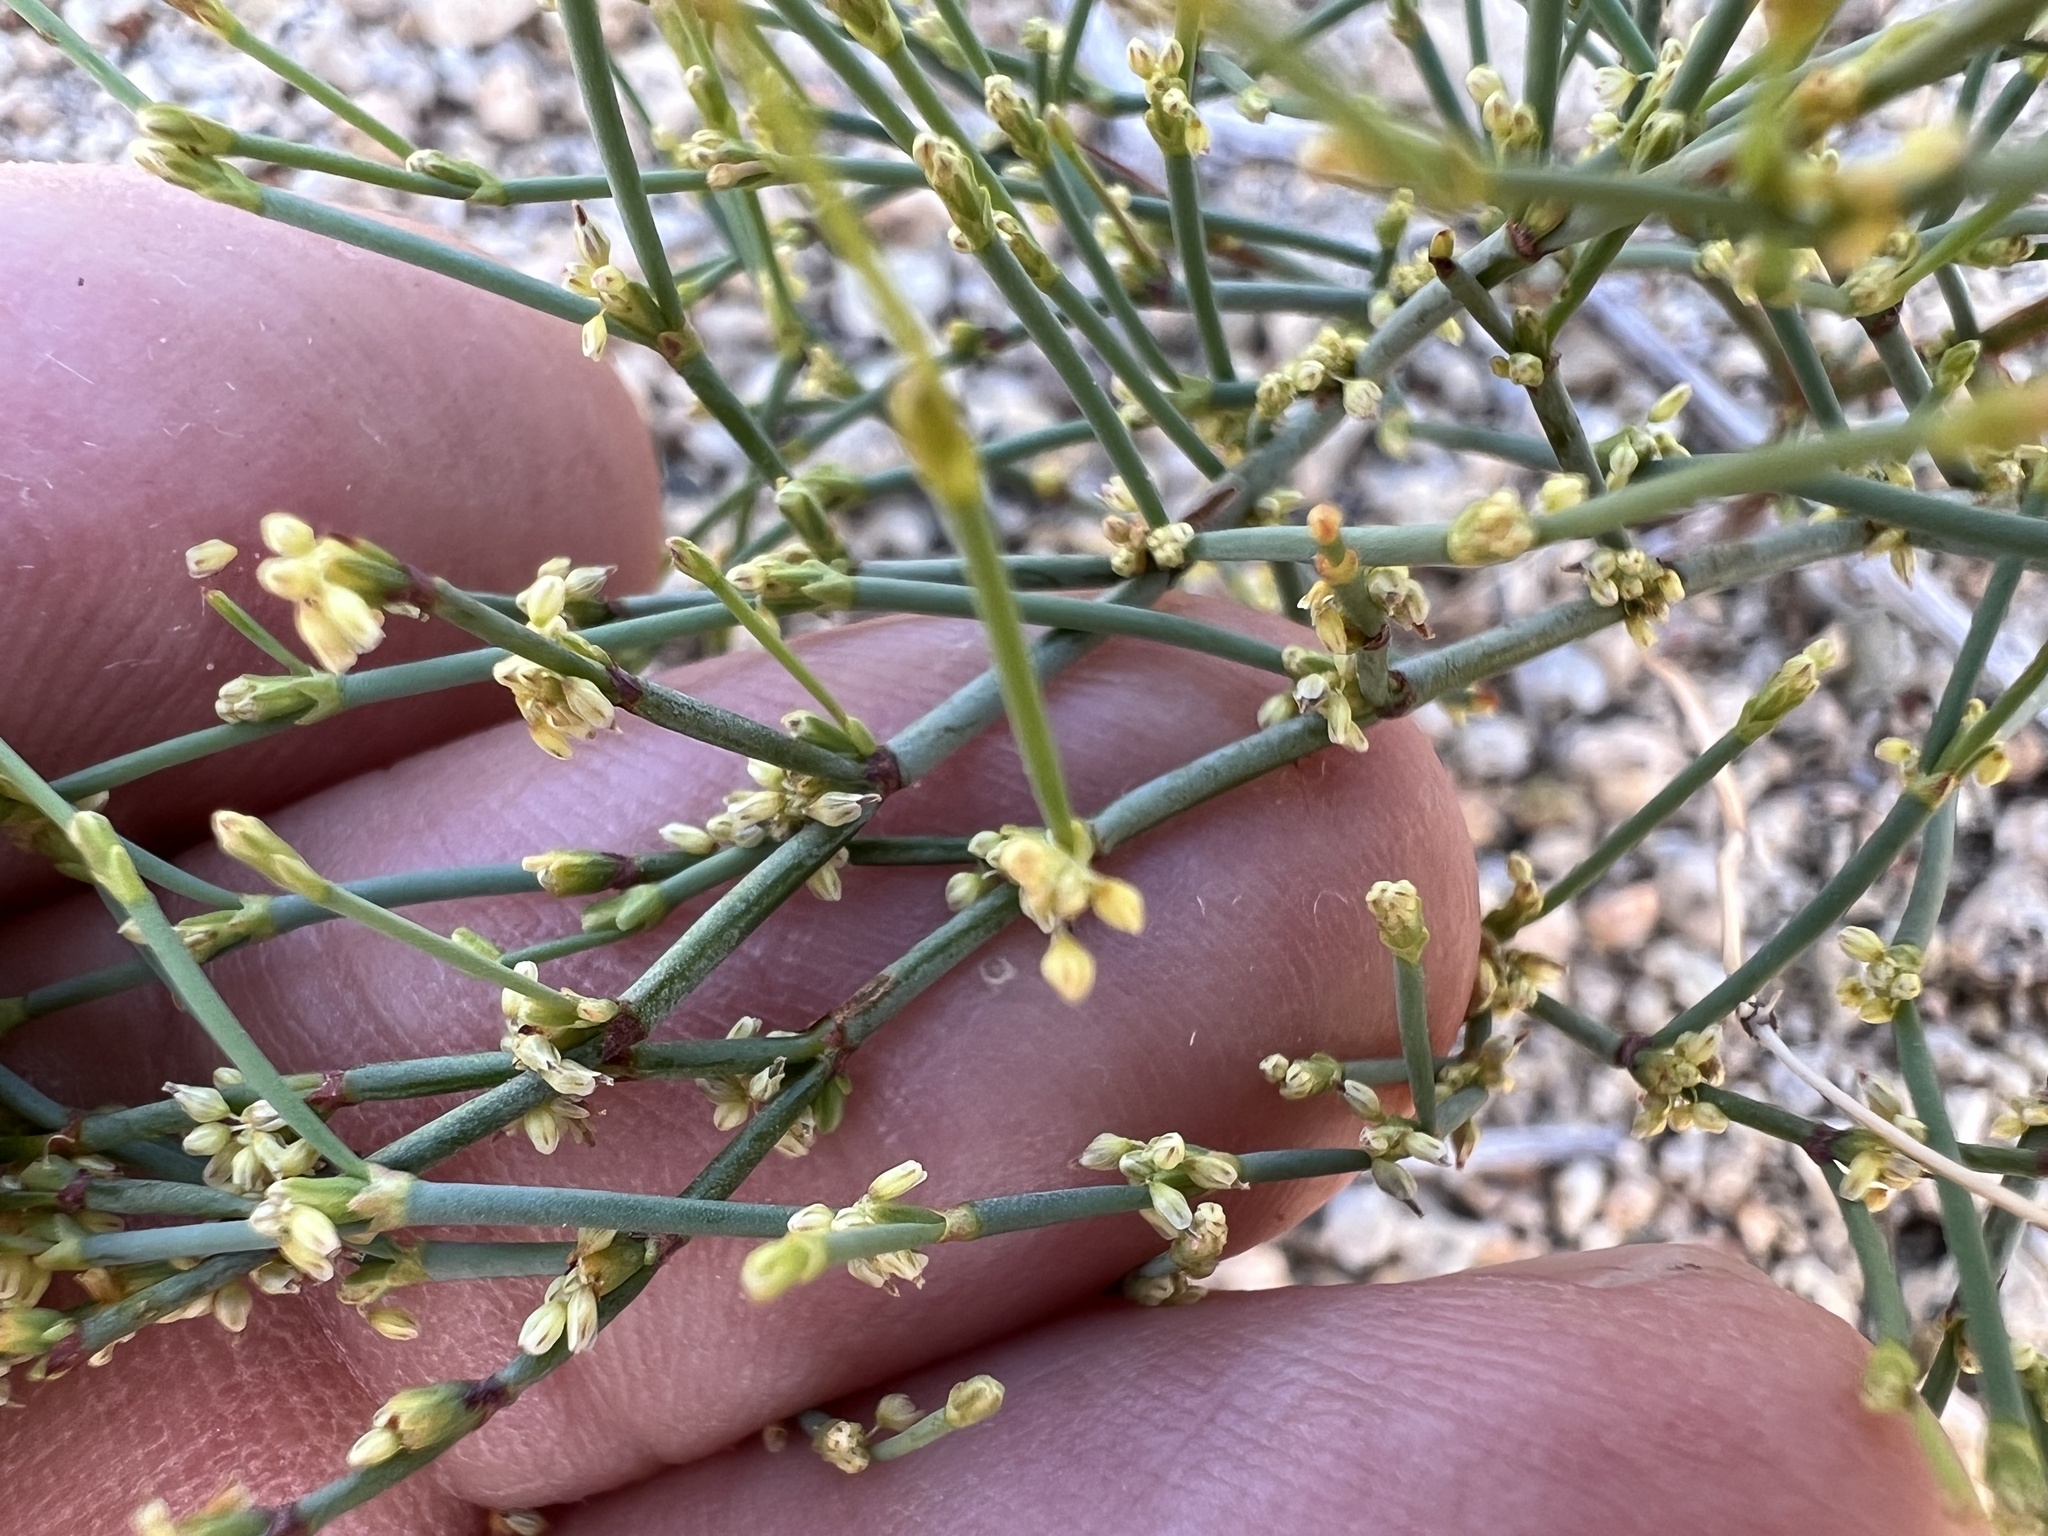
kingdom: Plantae
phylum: Tracheophyta
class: Magnoliopsida
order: Caryophyllales
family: Polygonaceae
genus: Eriogonum
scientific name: Eriogonum brachyanthum
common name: Short-flower wild buckwheat
